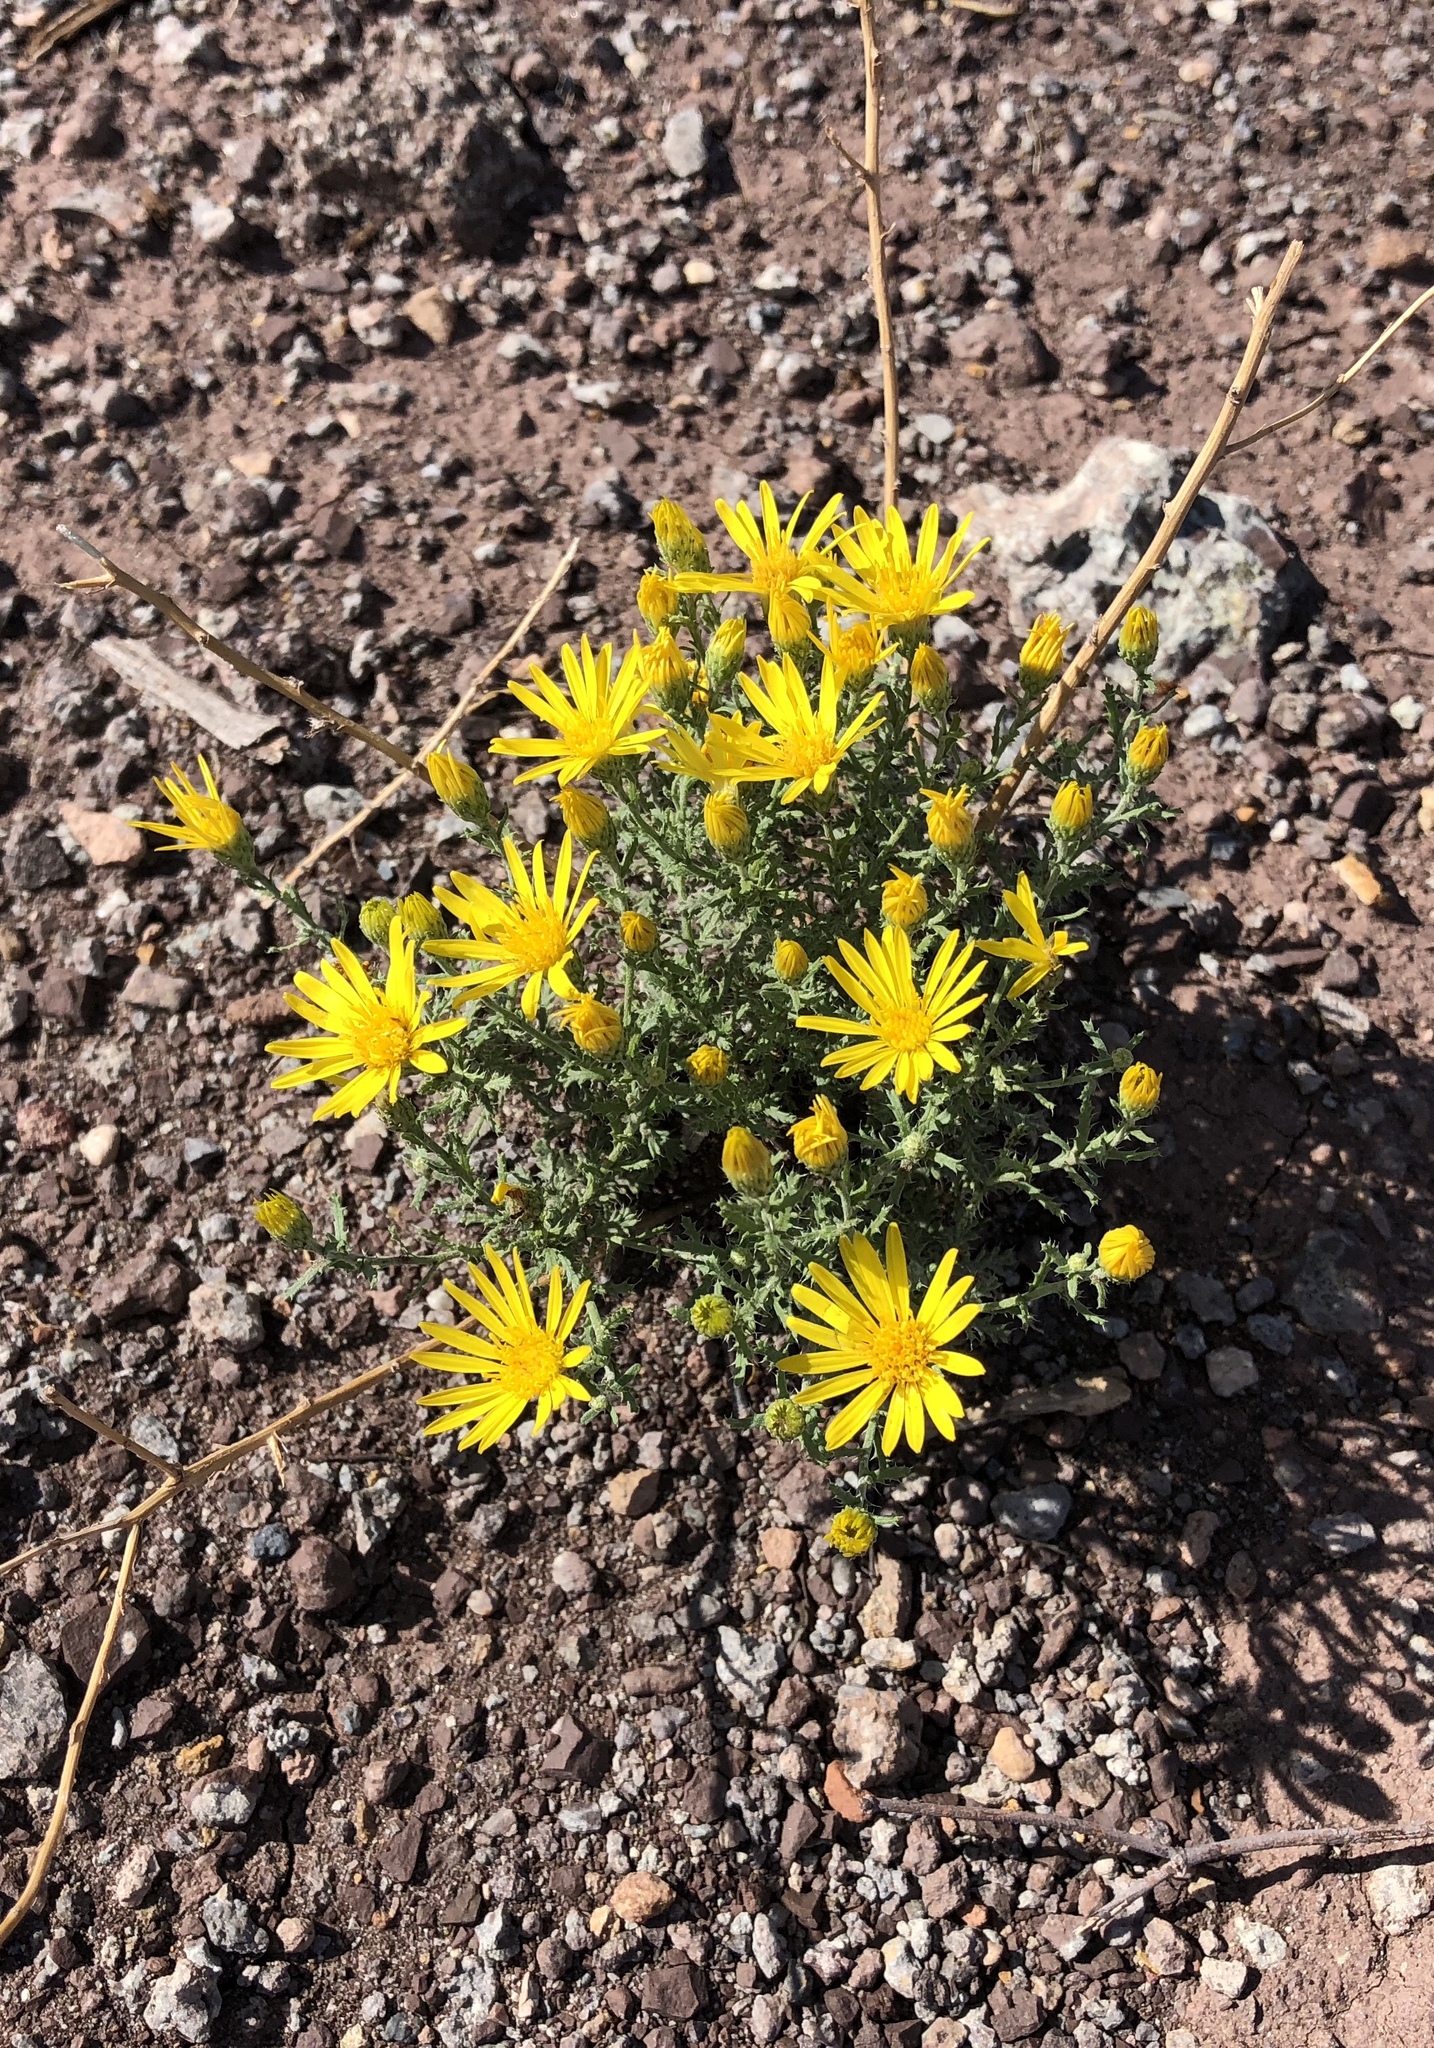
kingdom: Plantae
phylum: Tracheophyta
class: Magnoliopsida
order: Asterales
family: Asteraceae
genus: Xanthisma
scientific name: Xanthisma spinulosum
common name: Spiny goldenweed
